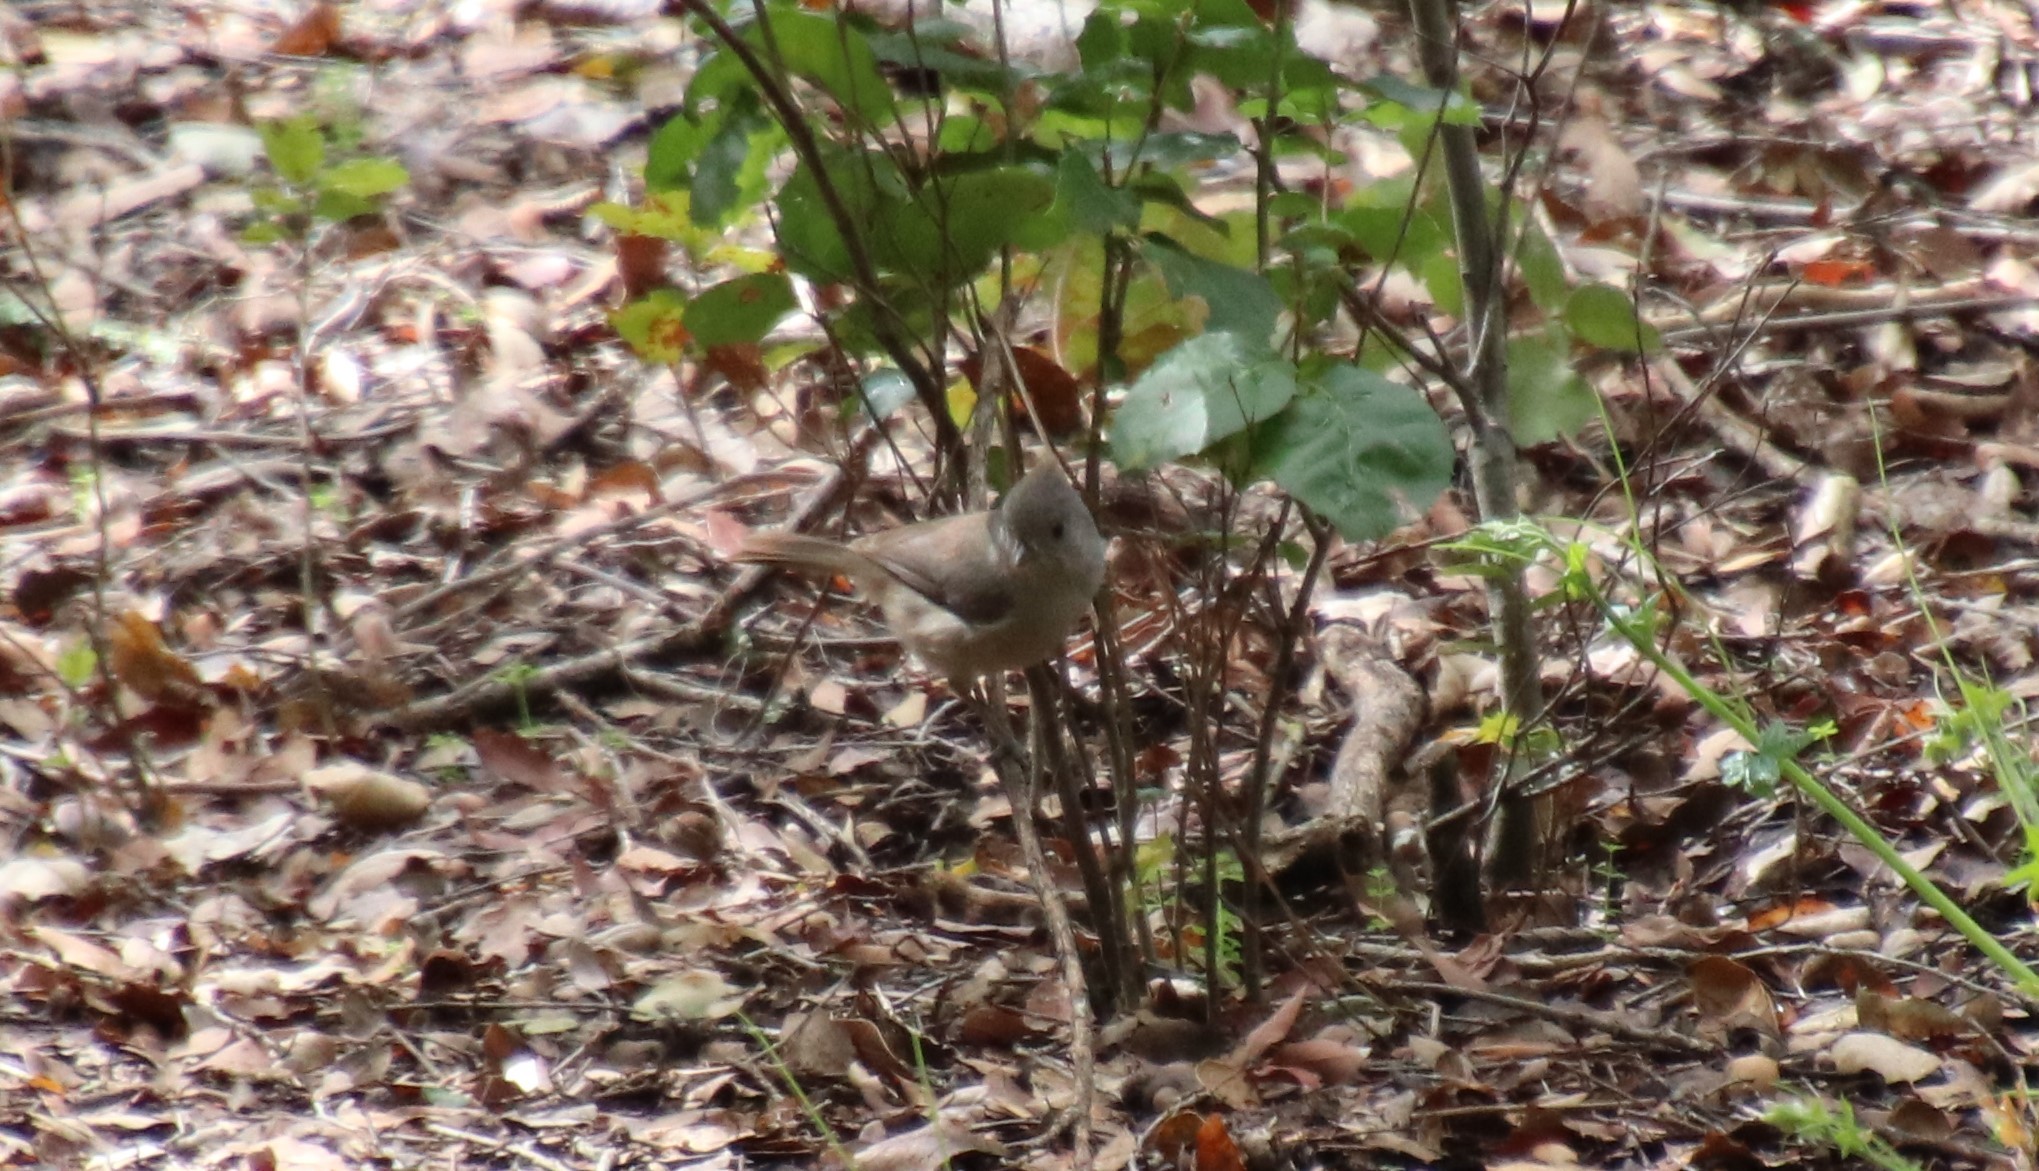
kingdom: Animalia
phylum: Chordata
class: Aves
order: Passeriformes
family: Paridae
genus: Baeolophus
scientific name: Baeolophus inornatus
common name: Oak titmouse
